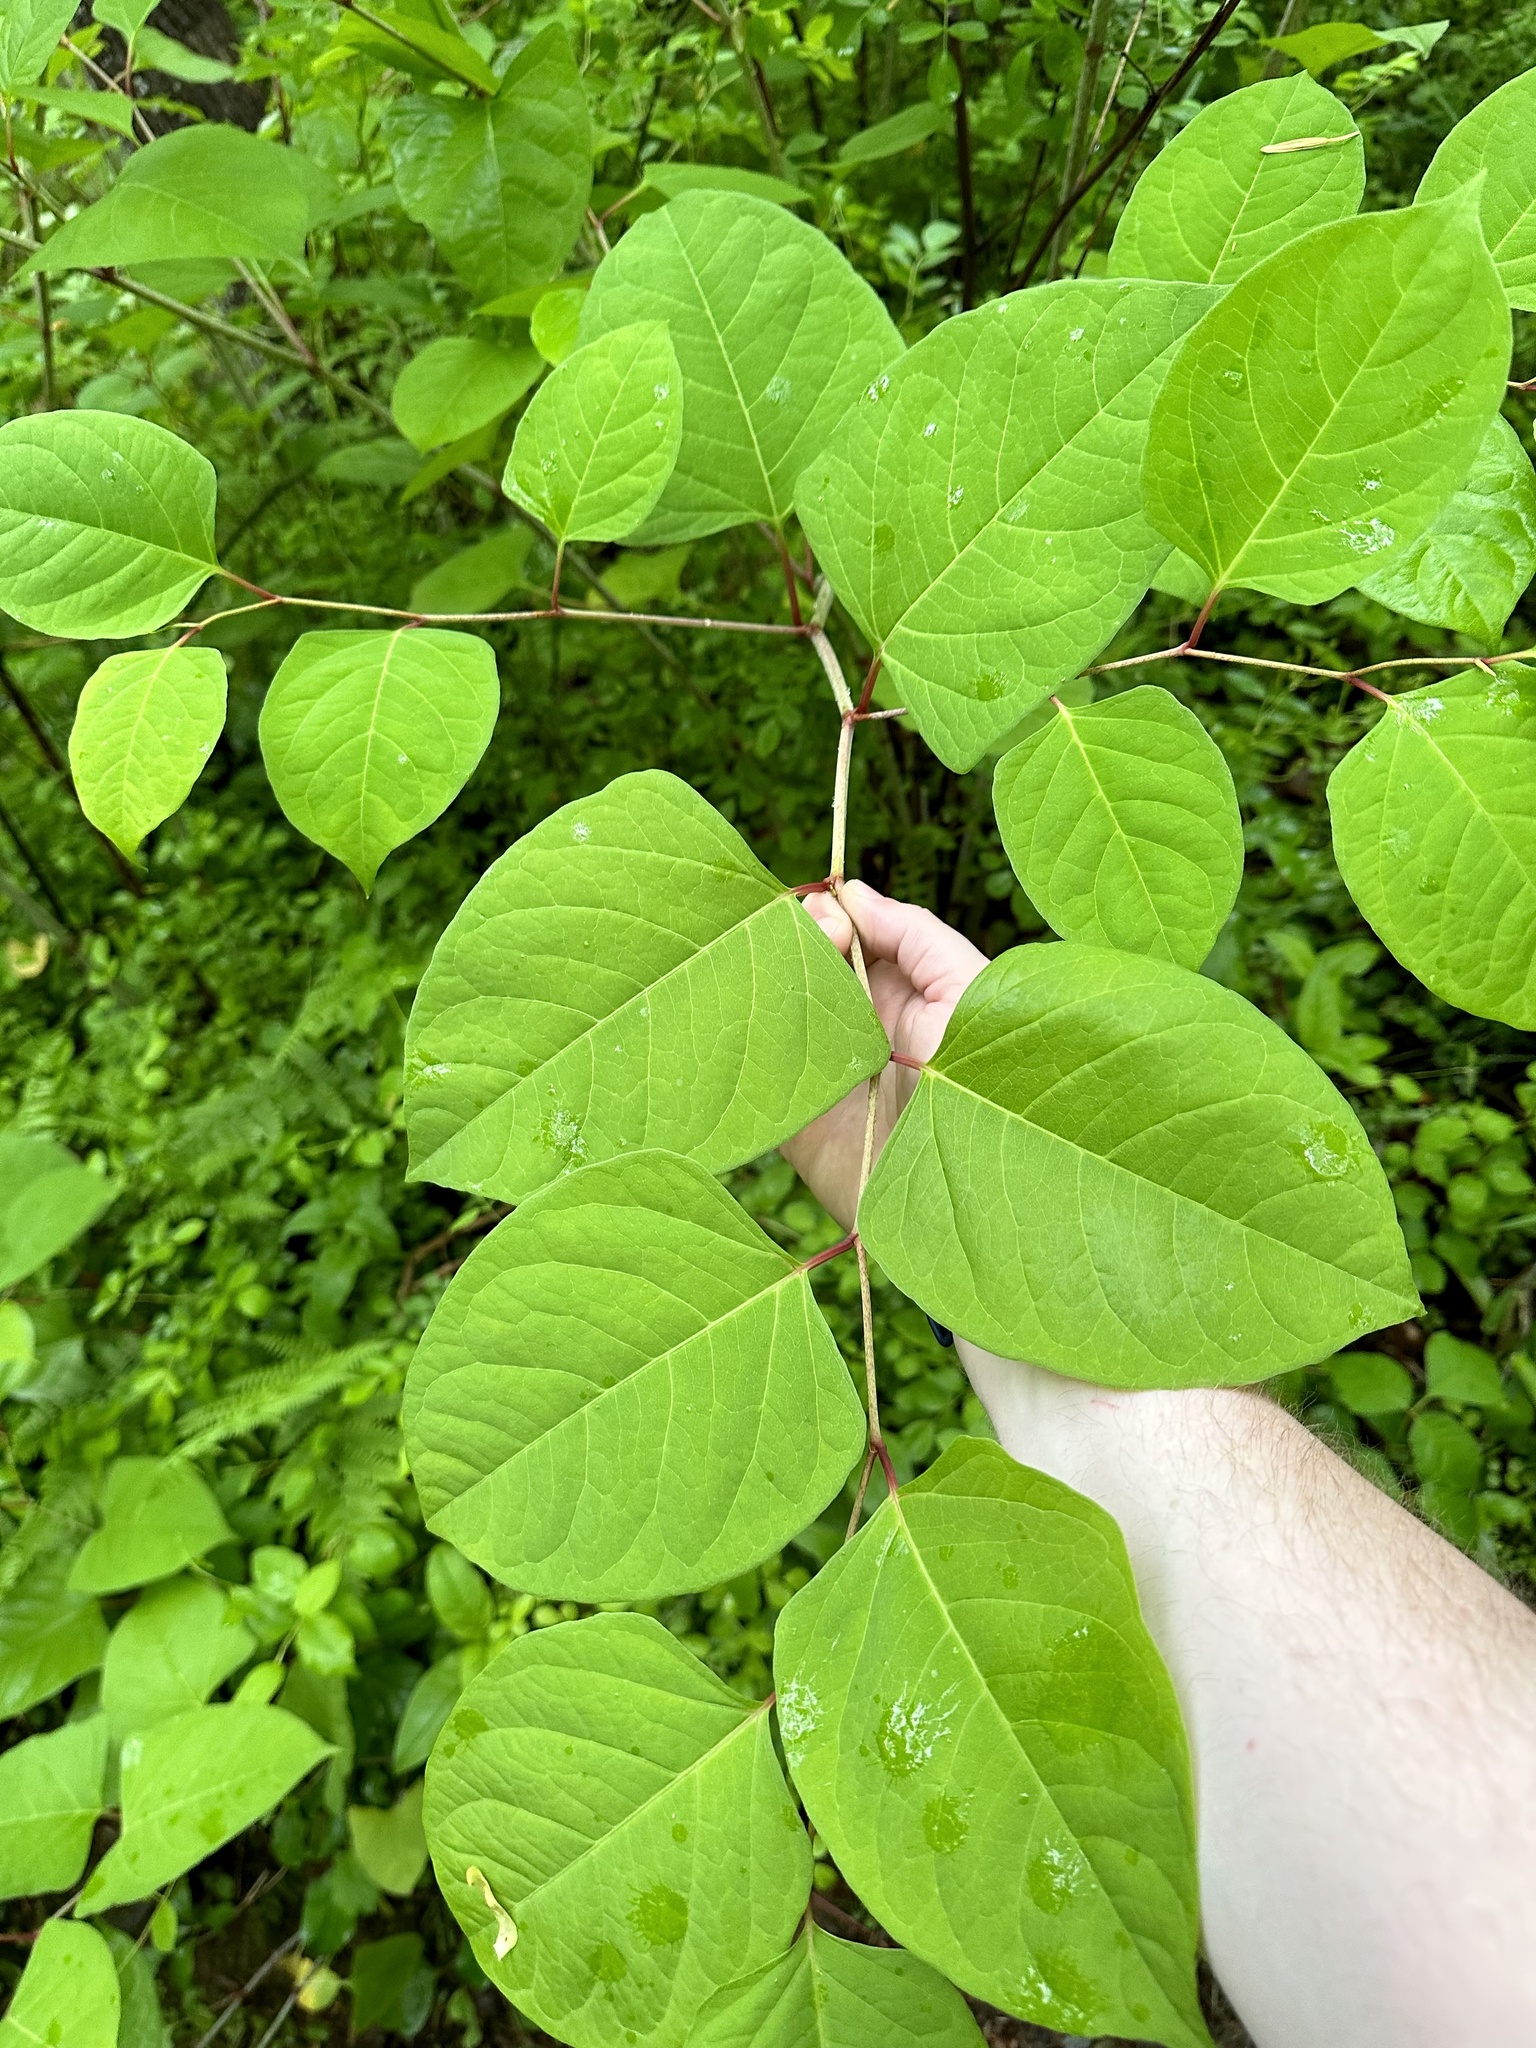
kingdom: Plantae
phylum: Tracheophyta
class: Magnoliopsida
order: Caryophyllales
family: Polygonaceae
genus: Reynoutria
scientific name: Reynoutria japonica
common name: Japanese knotweed
